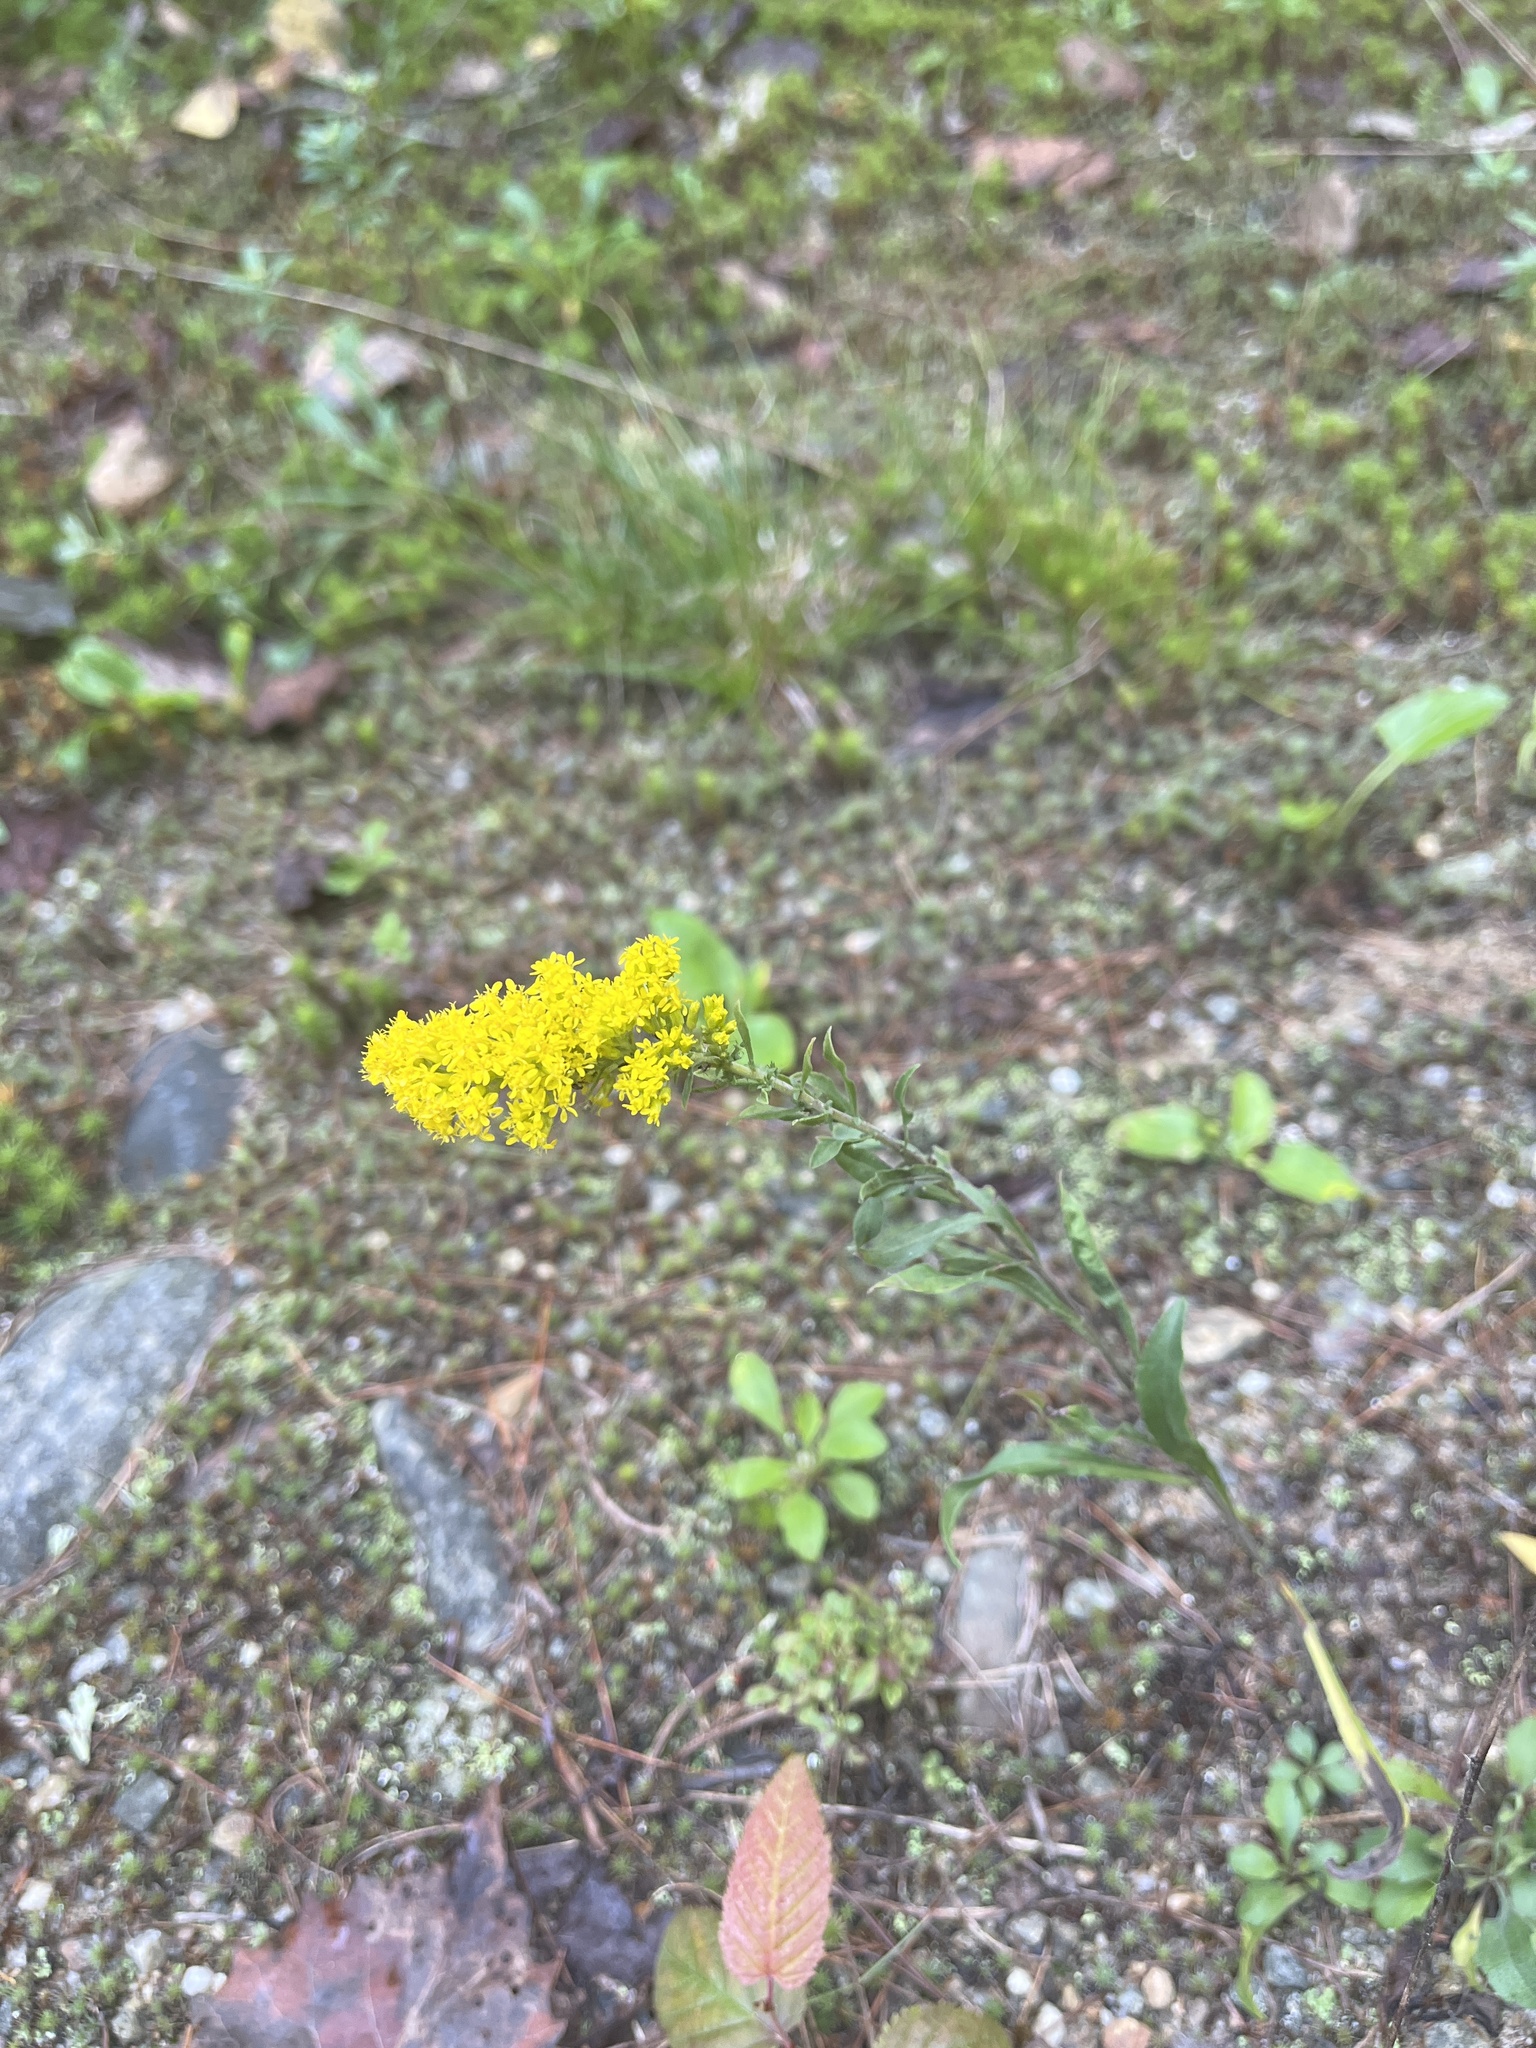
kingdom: Plantae
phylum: Tracheophyta
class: Magnoliopsida
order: Asterales
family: Asteraceae
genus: Solidago
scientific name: Solidago nemoralis
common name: Grey goldenrod
